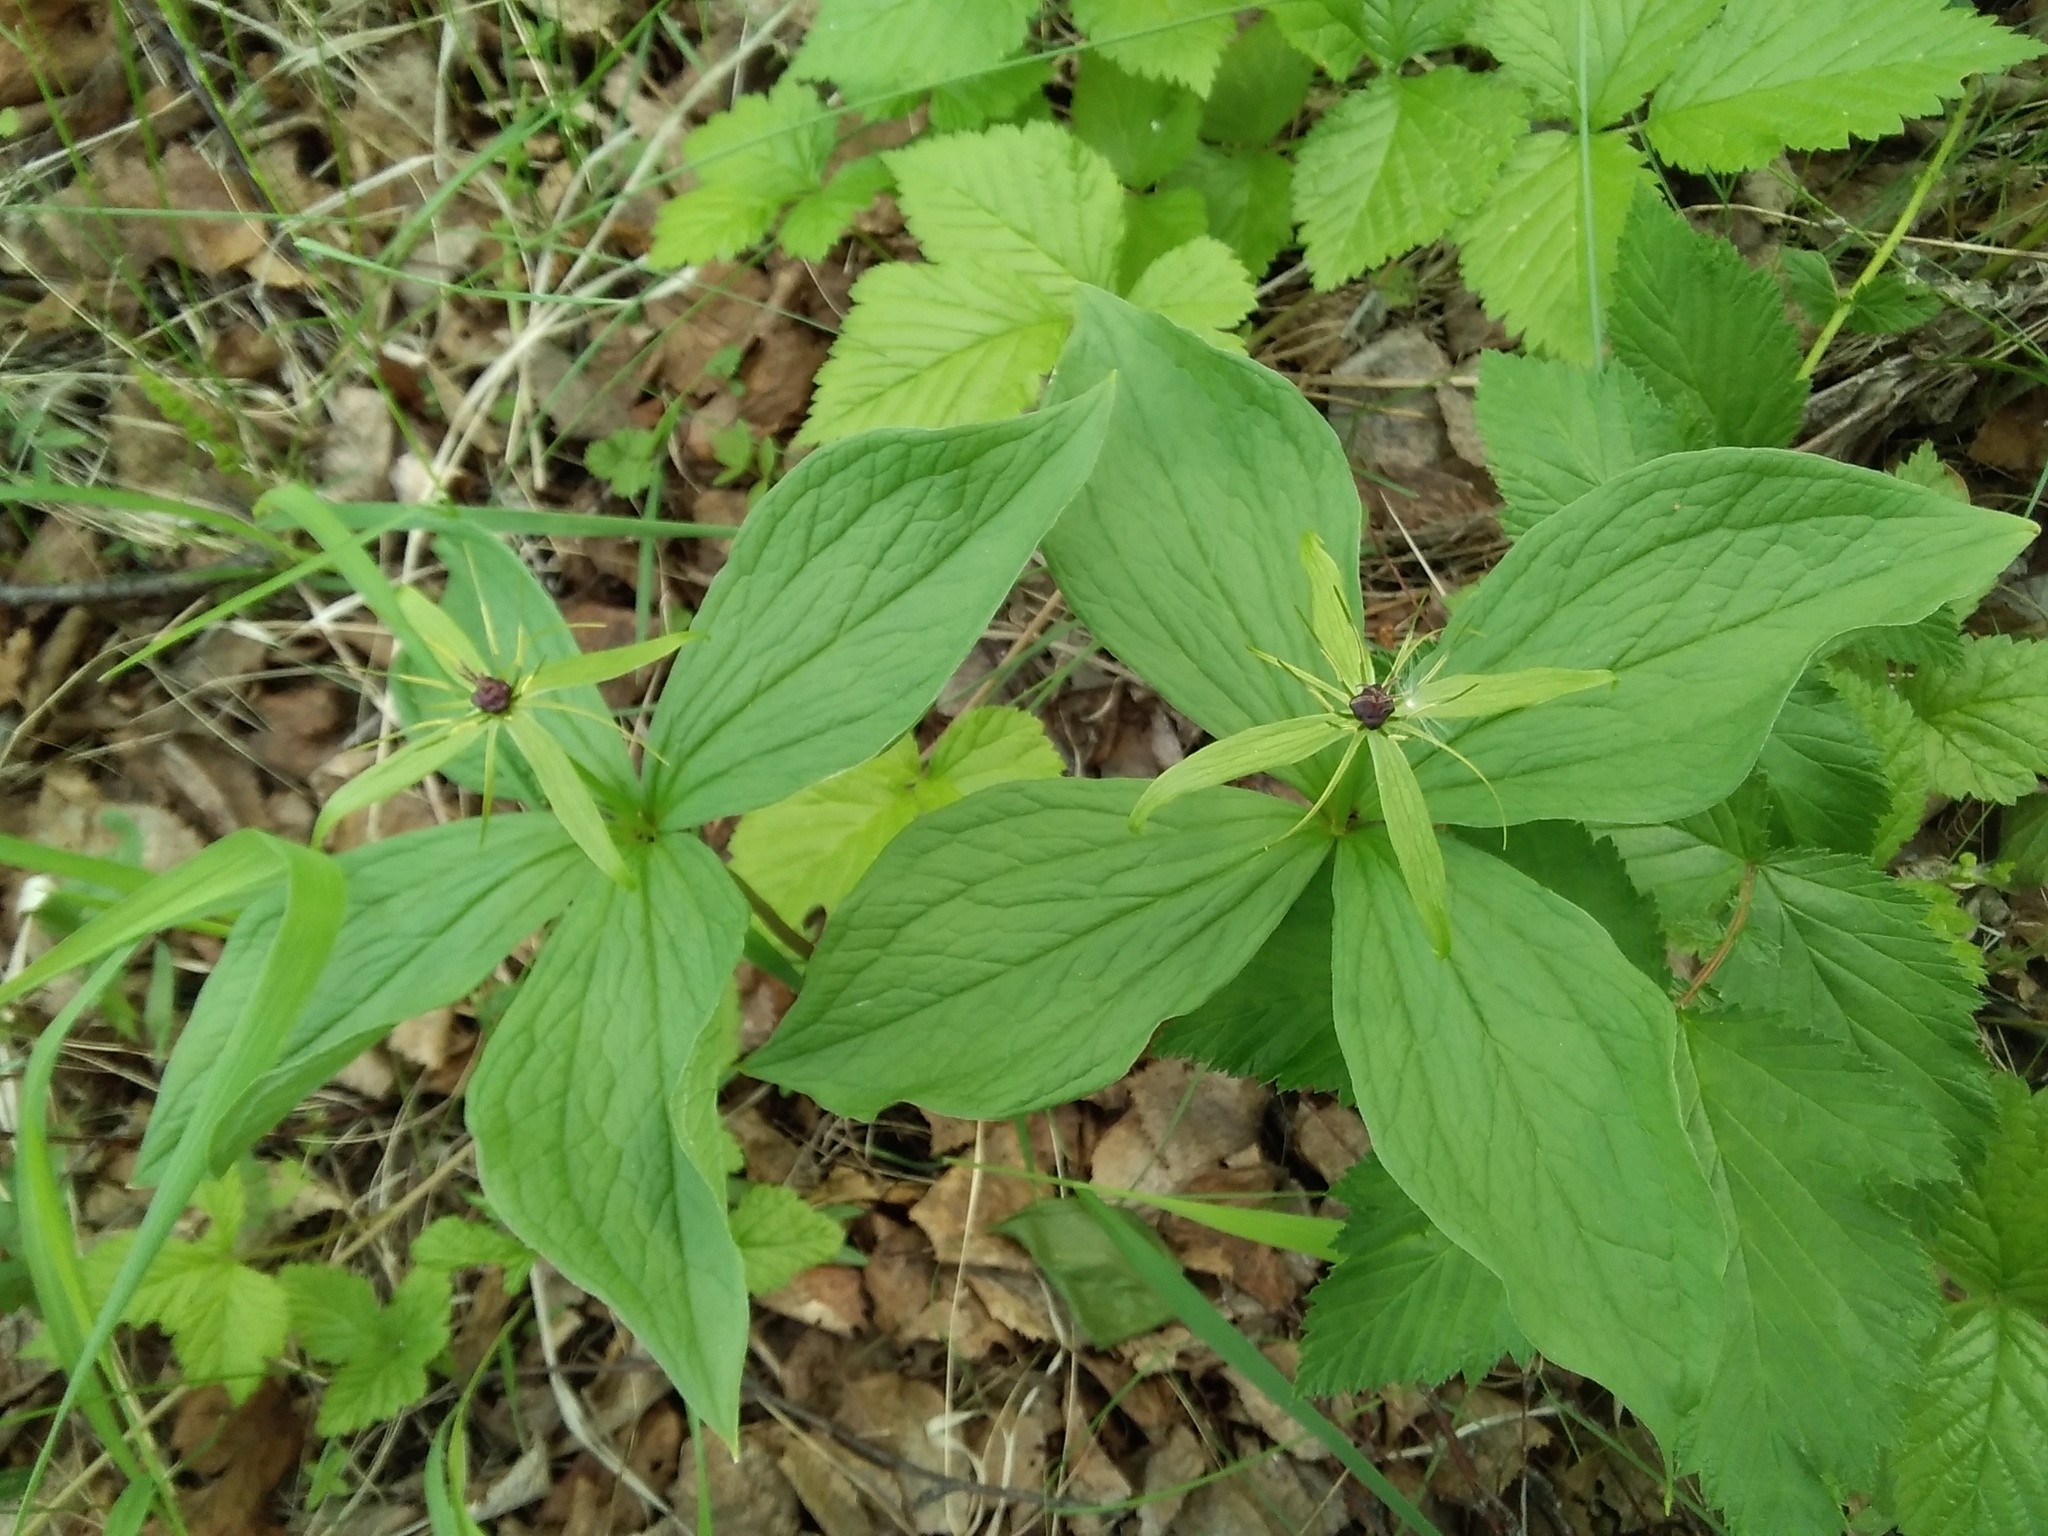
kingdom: Plantae
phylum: Tracheophyta
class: Liliopsida
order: Liliales
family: Melanthiaceae
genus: Paris
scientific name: Paris quadrifolia
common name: Herb-paris
